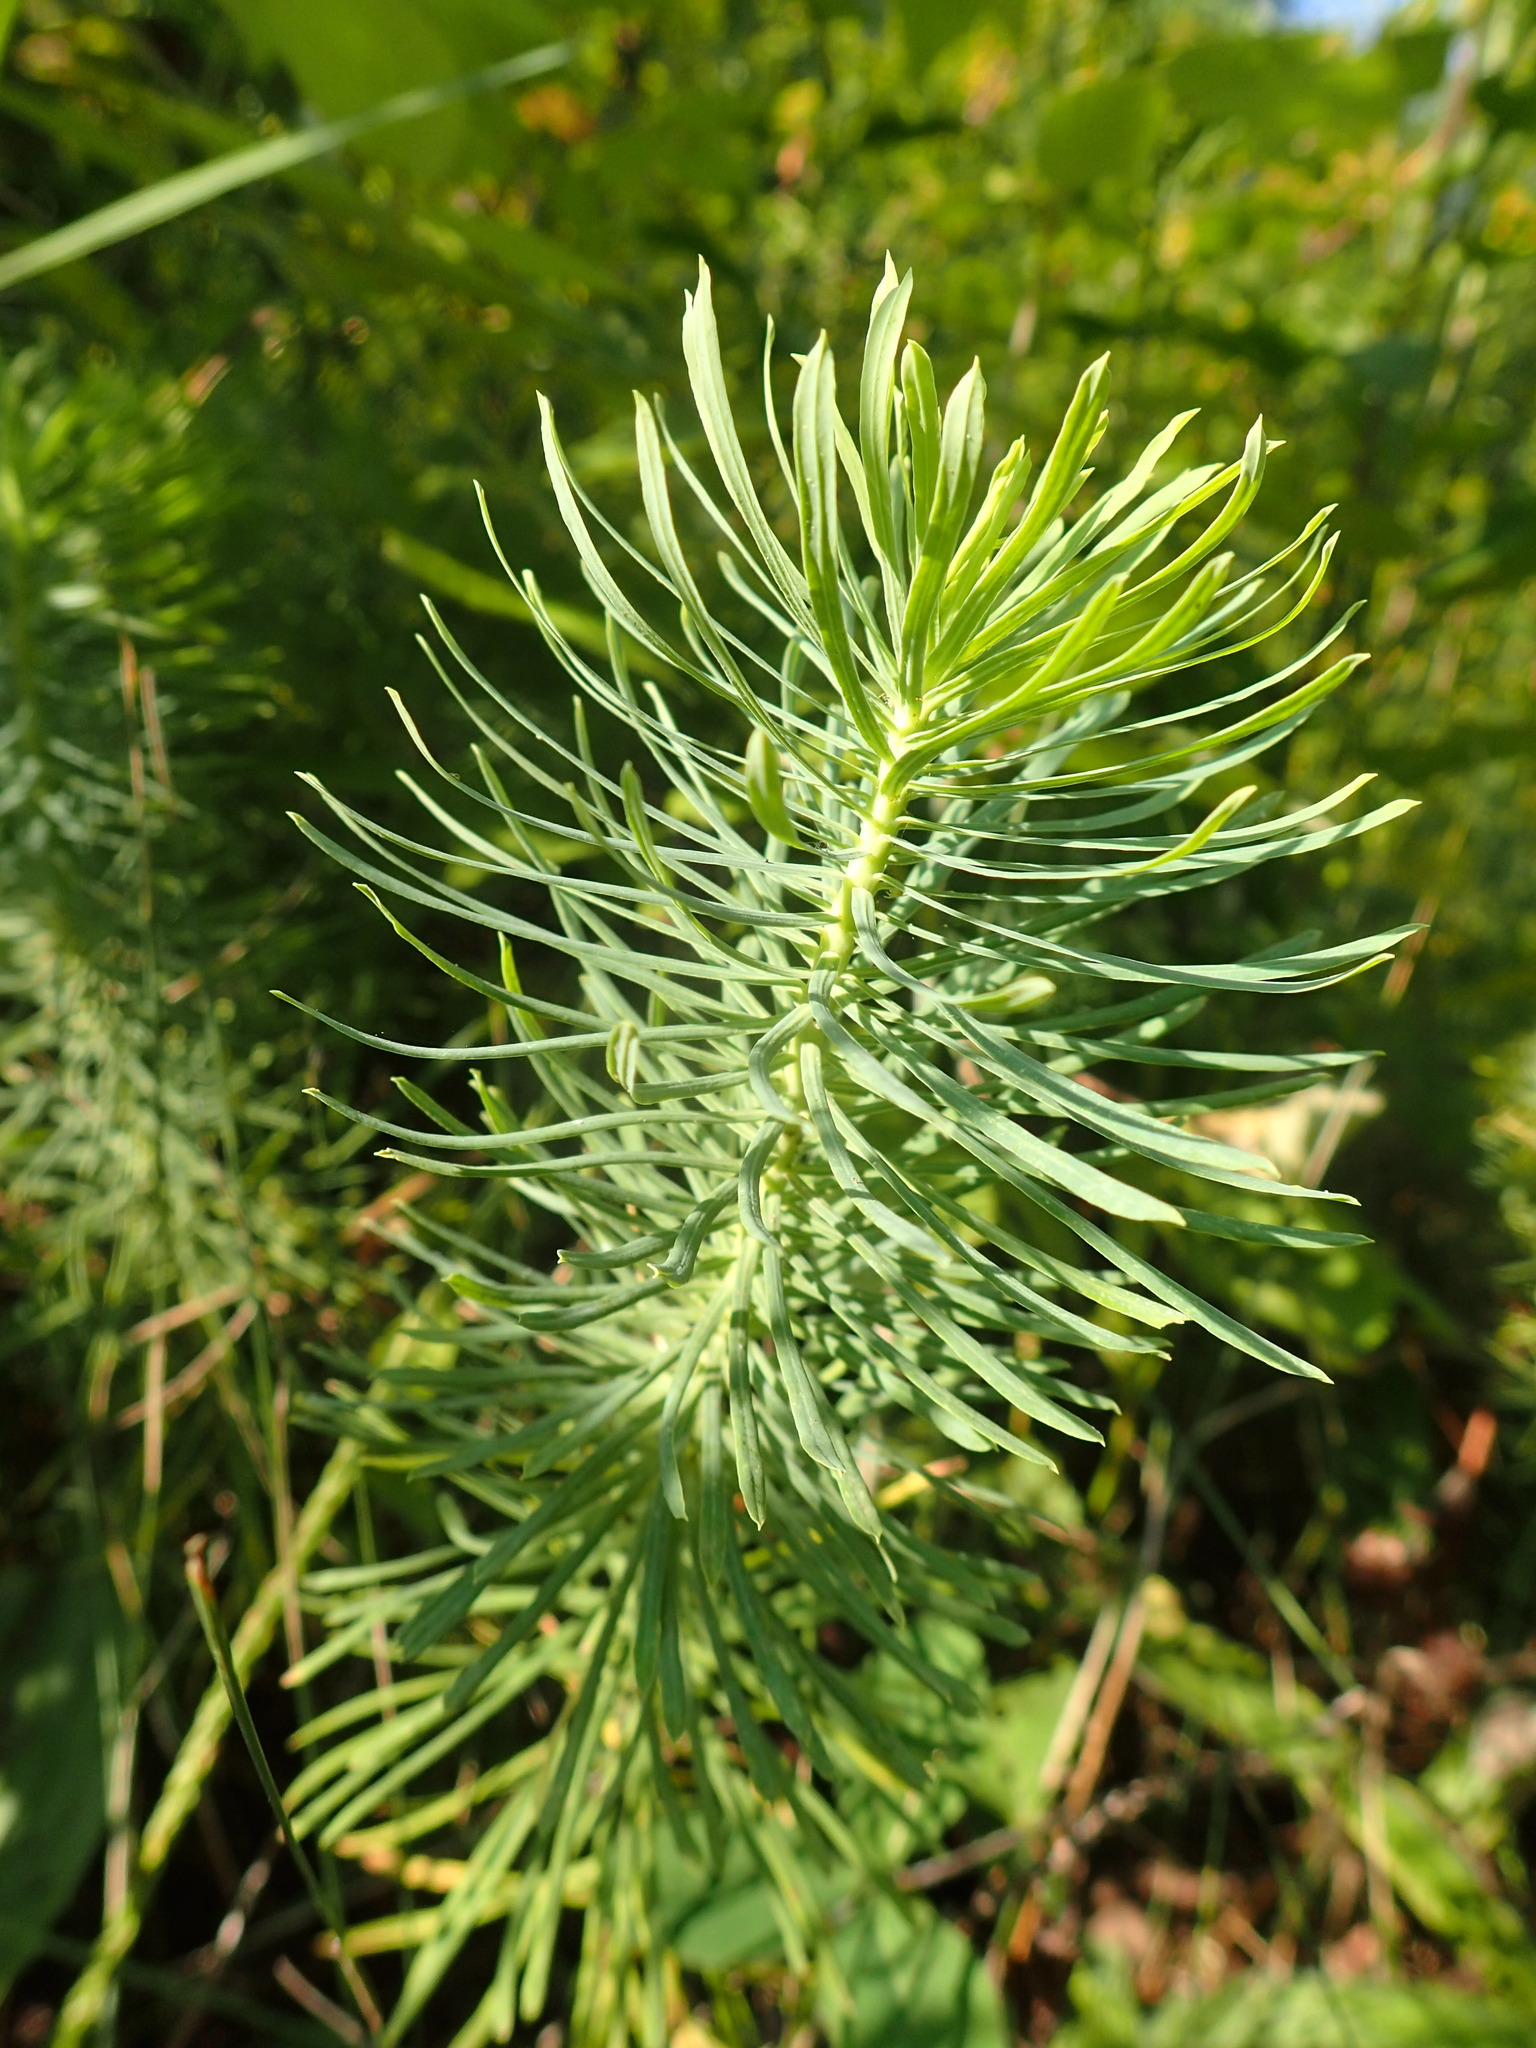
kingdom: Plantae
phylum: Tracheophyta
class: Magnoliopsida
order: Malpighiales
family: Euphorbiaceae
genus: Euphorbia
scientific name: Euphorbia cyparissias
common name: Cypress spurge
